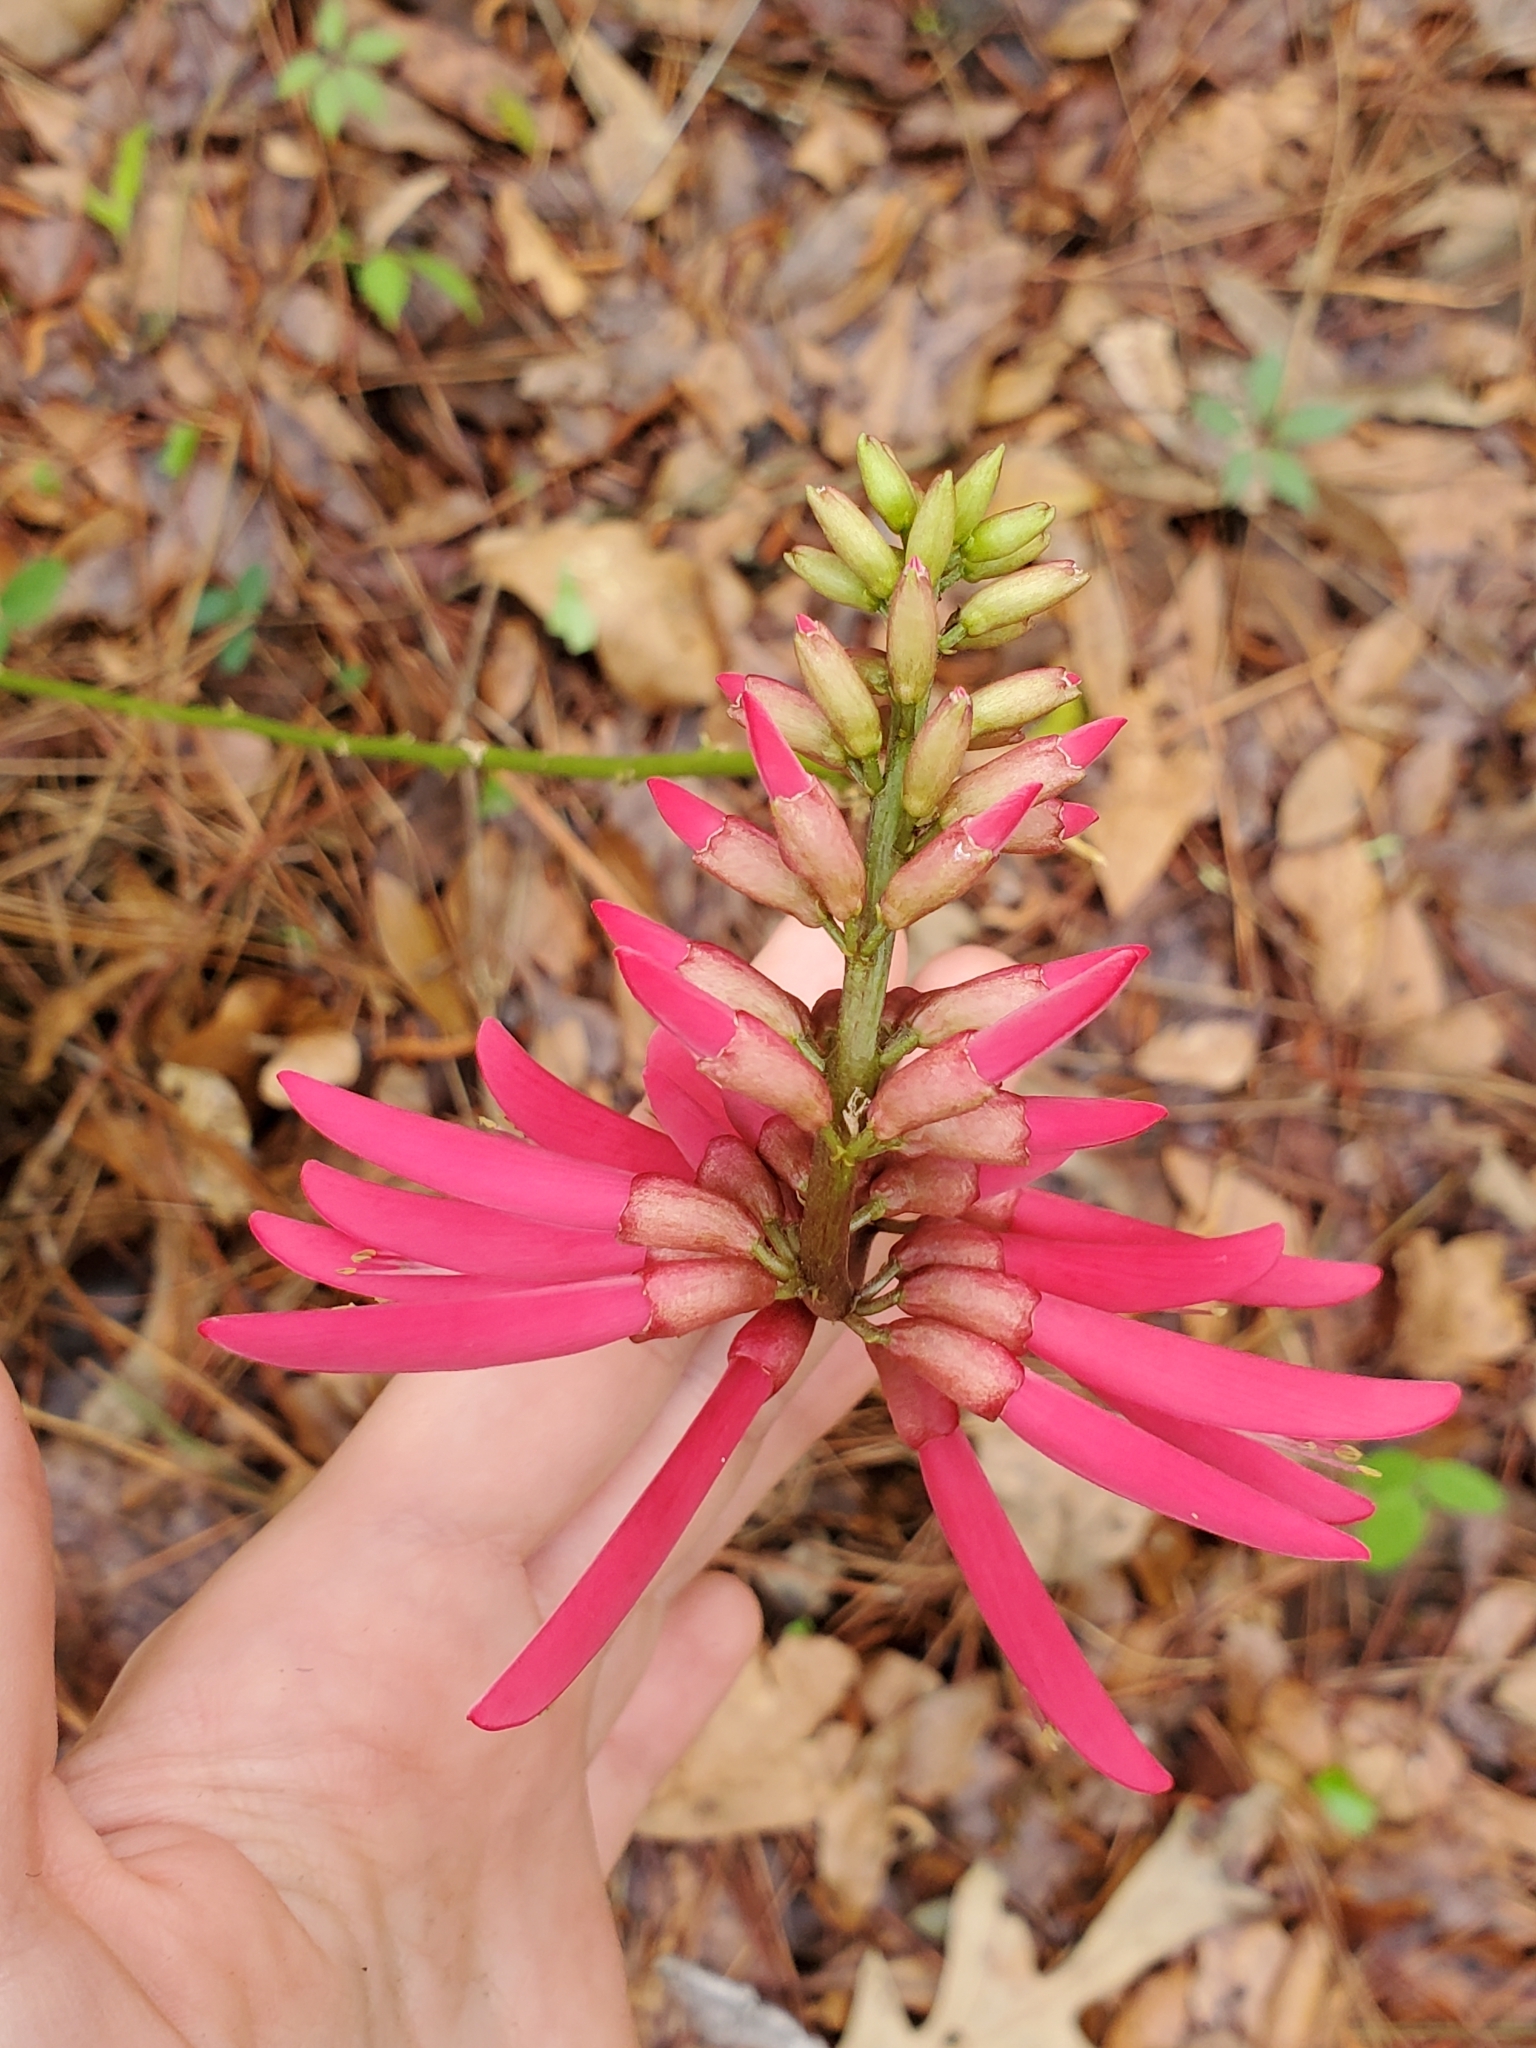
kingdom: Plantae
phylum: Tracheophyta
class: Magnoliopsida
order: Fabales
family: Fabaceae
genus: Erythrina
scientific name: Erythrina herbacea
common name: Coral-bean
